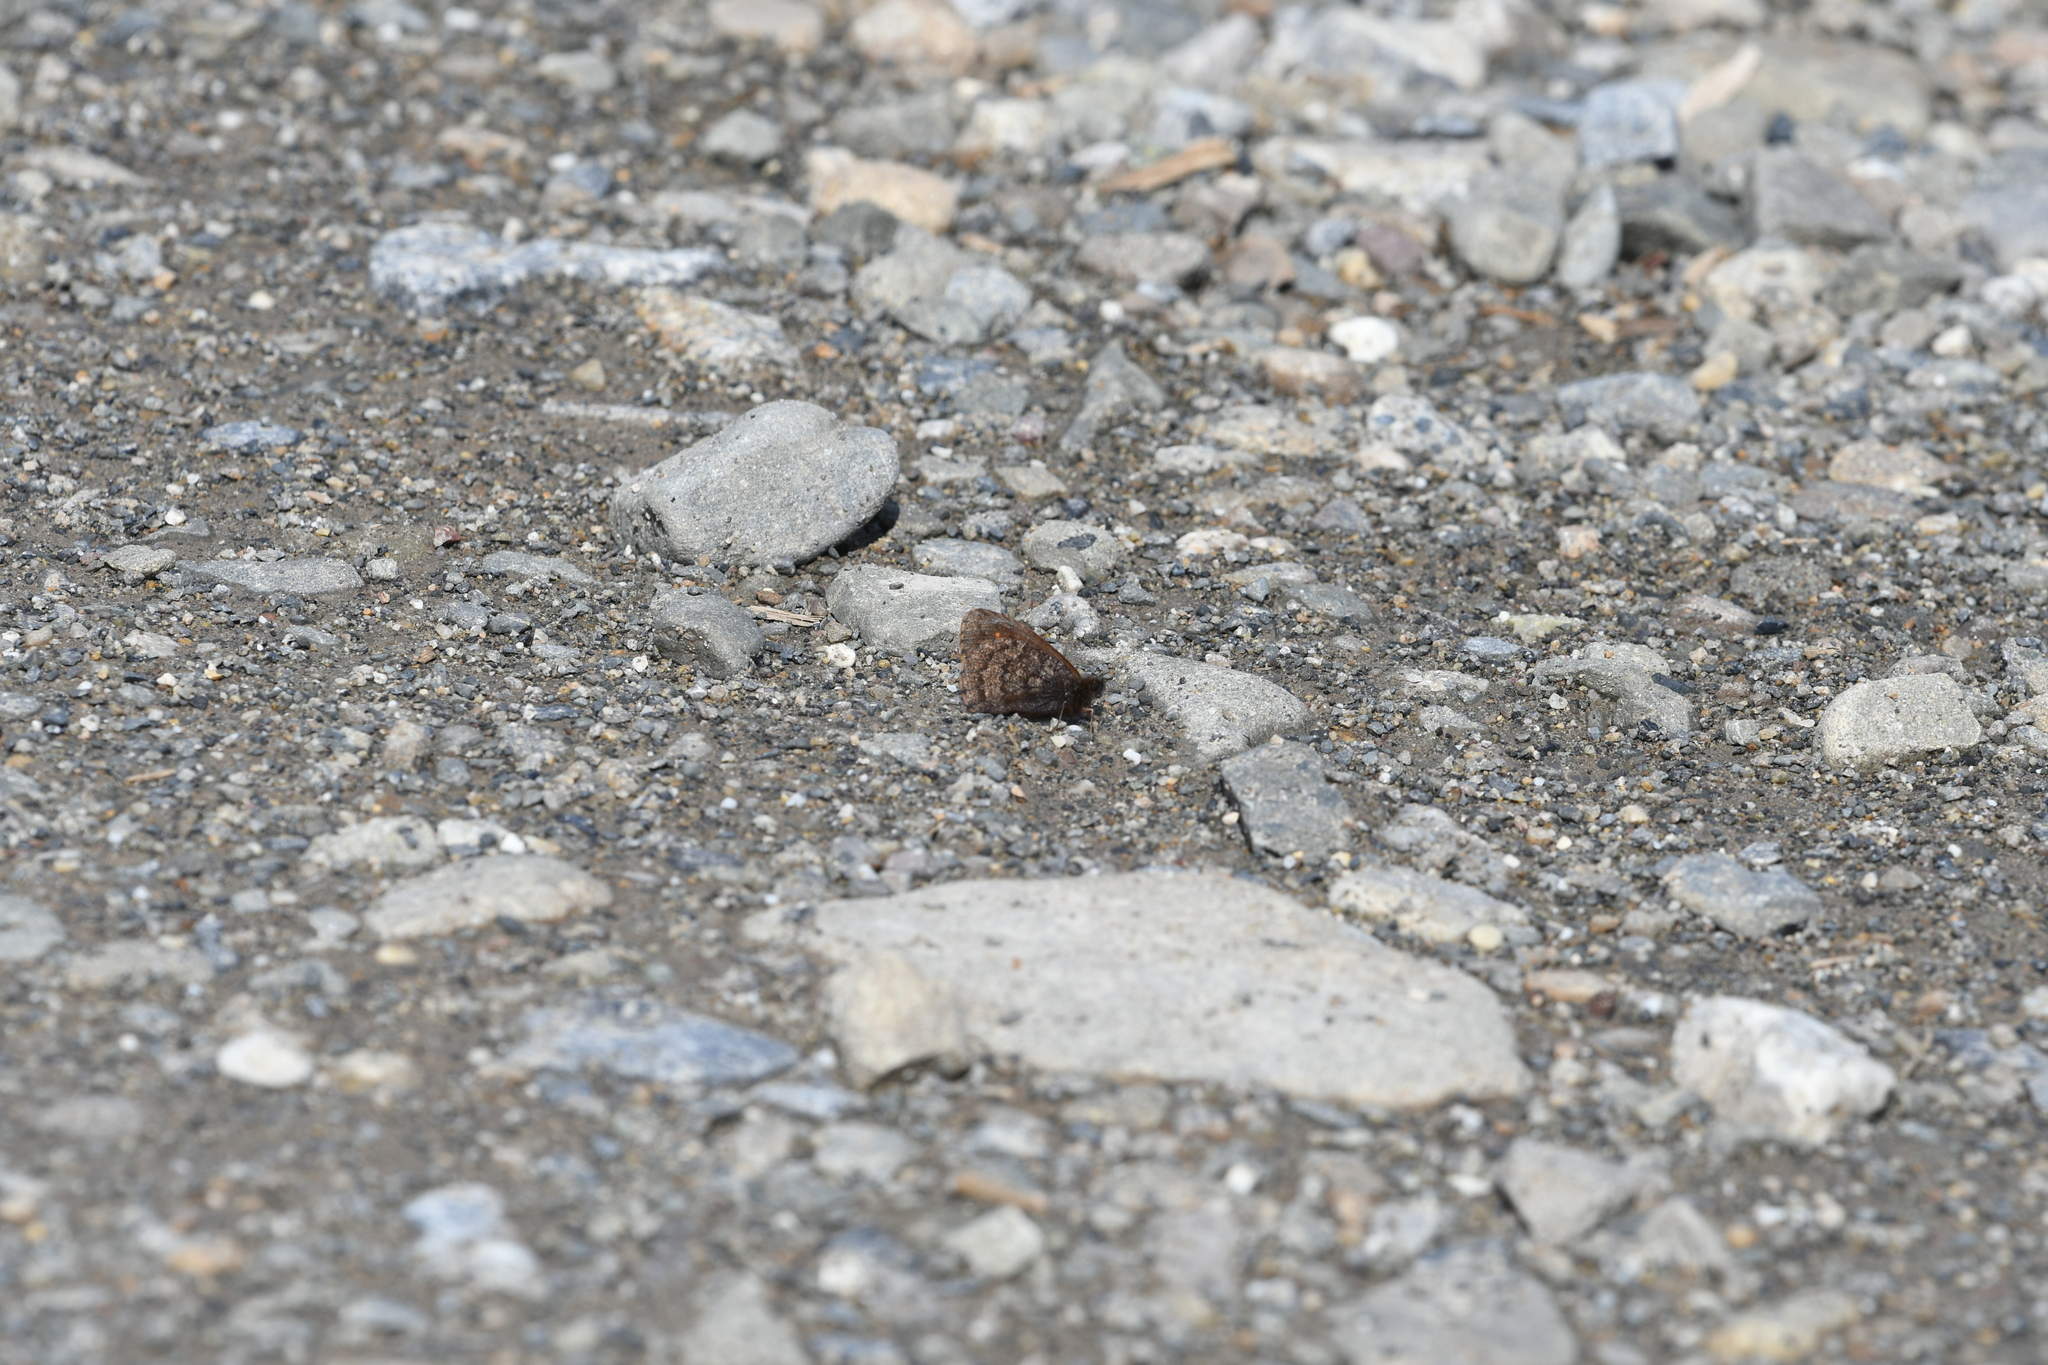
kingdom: Animalia
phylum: Arthropoda
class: Insecta
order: Lepidoptera
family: Nymphalidae
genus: Erebia
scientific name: Erebia rossii
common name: Ross' alpine
